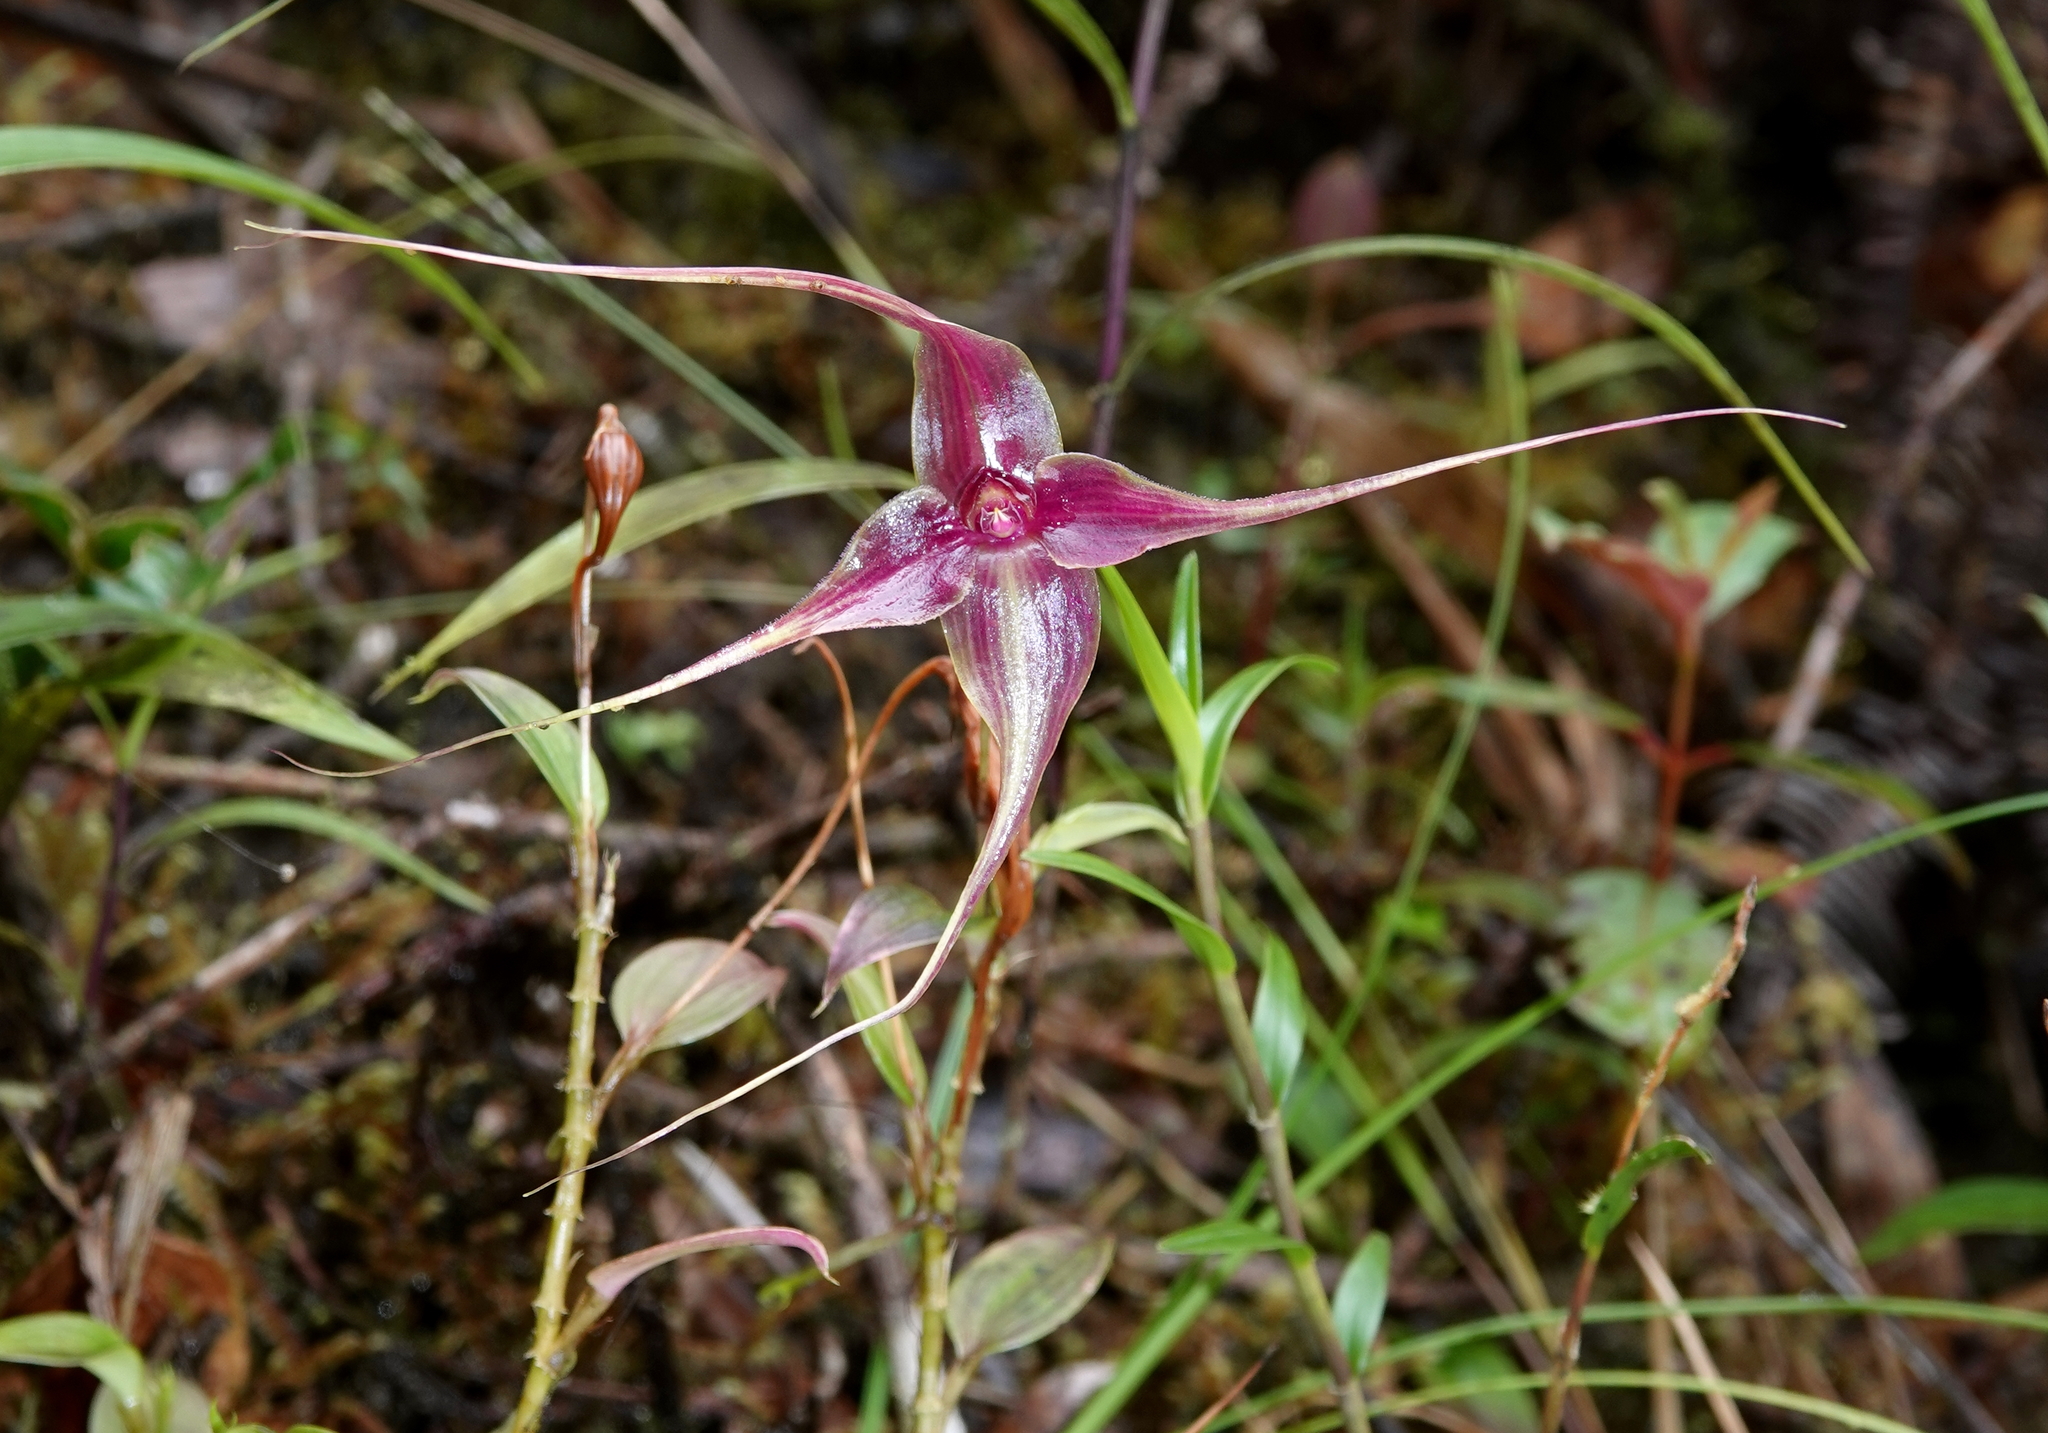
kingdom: Plantae
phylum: Tracheophyta
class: Liliopsida
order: Asparagales
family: Orchidaceae
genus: Brachionidium
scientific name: Brachionidium imperiale
